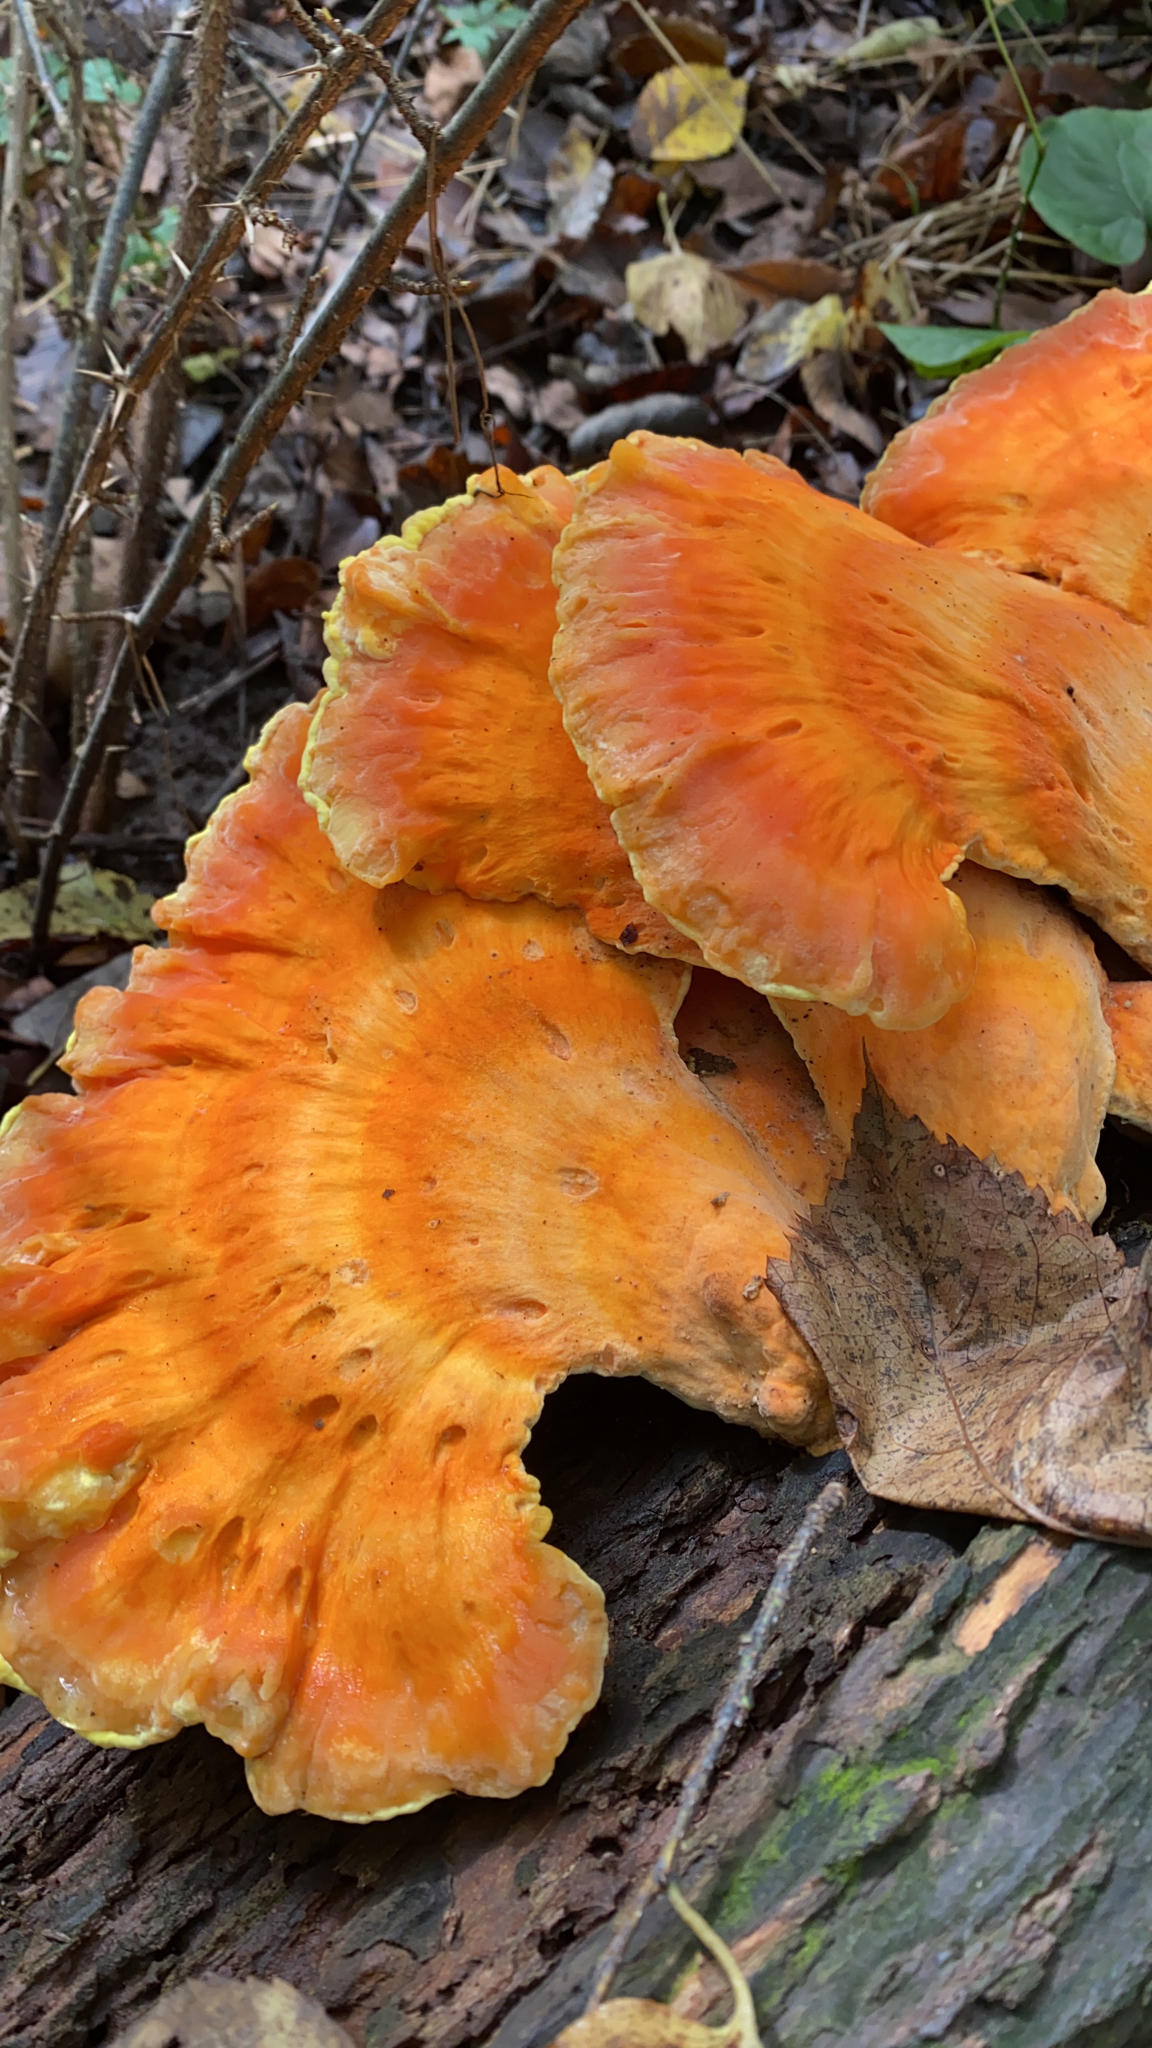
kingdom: Fungi
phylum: Basidiomycota
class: Agaricomycetes
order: Polyporales
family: Laetiporaceae
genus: Laetiporus
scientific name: Laetiporus sulphureus
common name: Chicken of the woods
